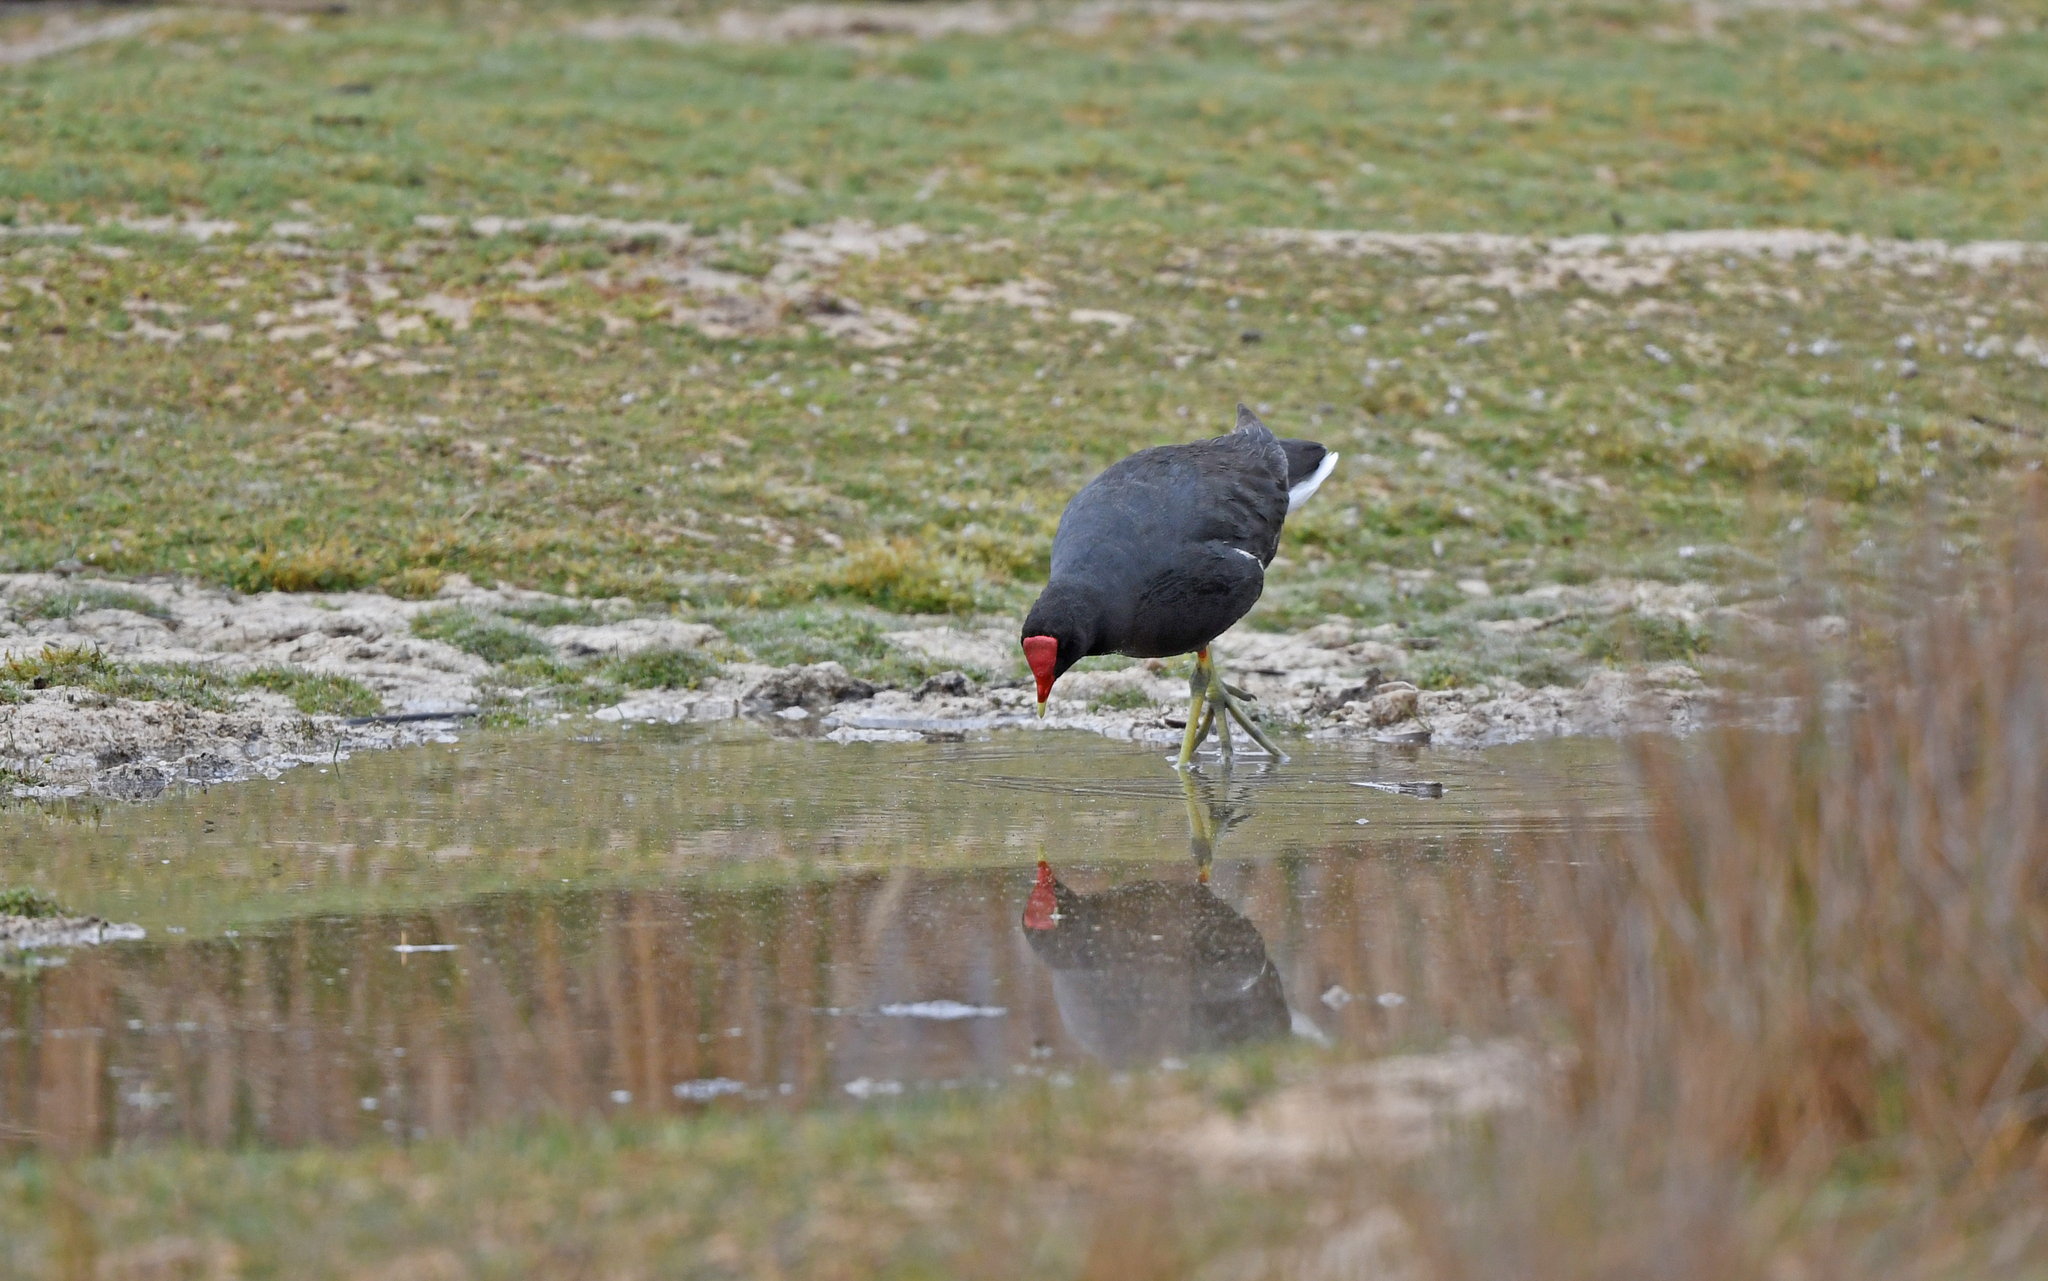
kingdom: Animalia
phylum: Chordata
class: Aves
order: Gruiformes
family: Rallidae
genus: Gallinula
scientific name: Gallinula chloropus
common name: Common moorhen
